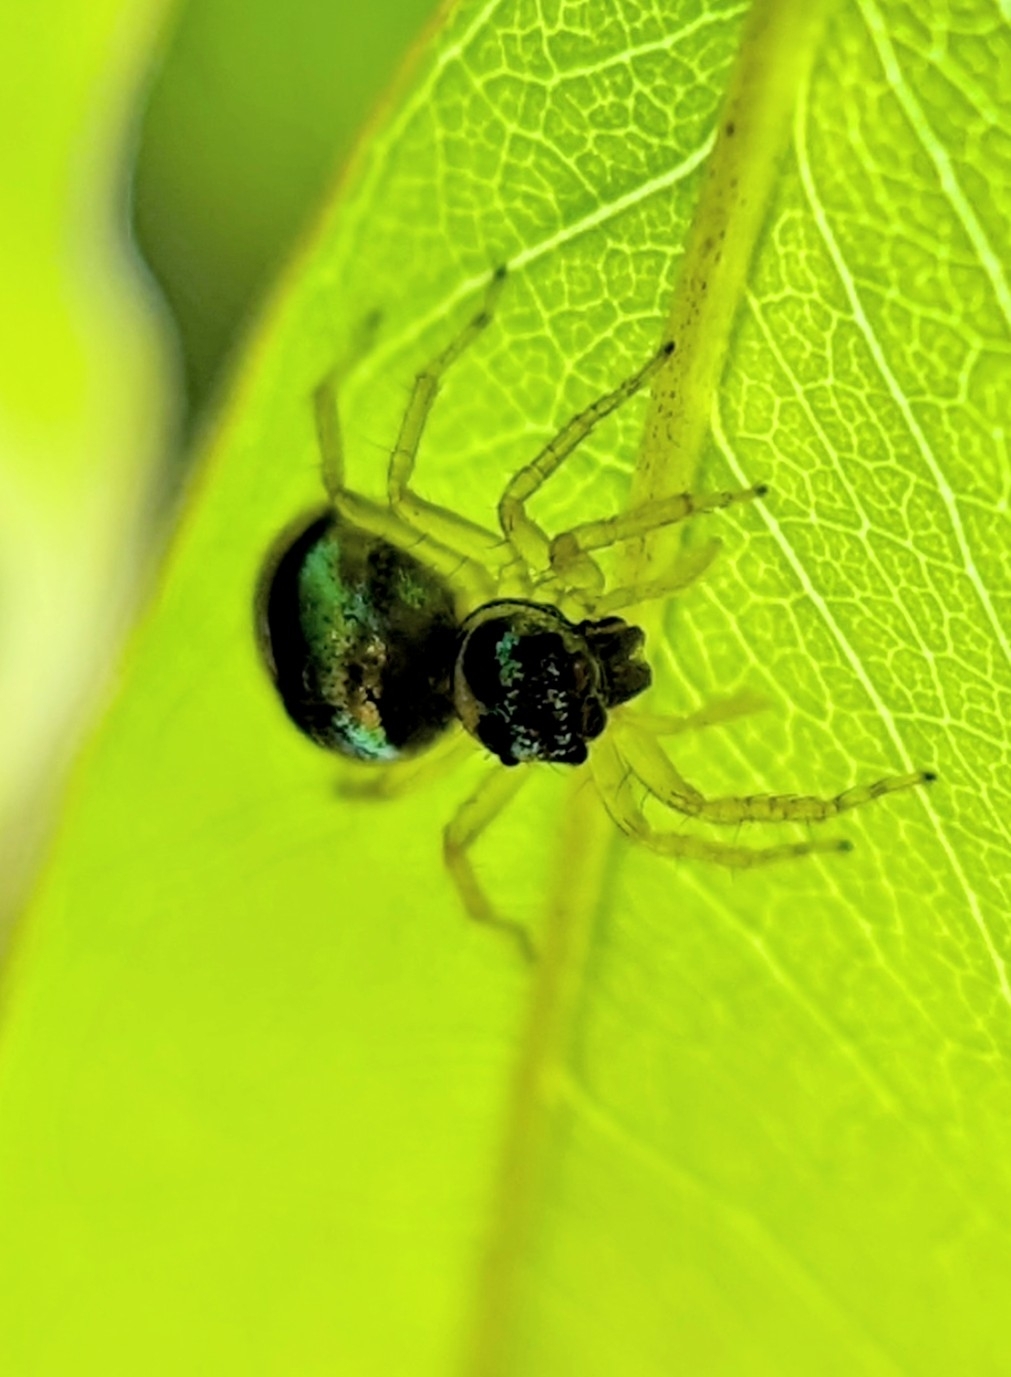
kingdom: Animalia
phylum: Arthropoda
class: Arachnida
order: Araneae
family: Salticidae
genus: Phintella
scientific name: Phintella vittata
